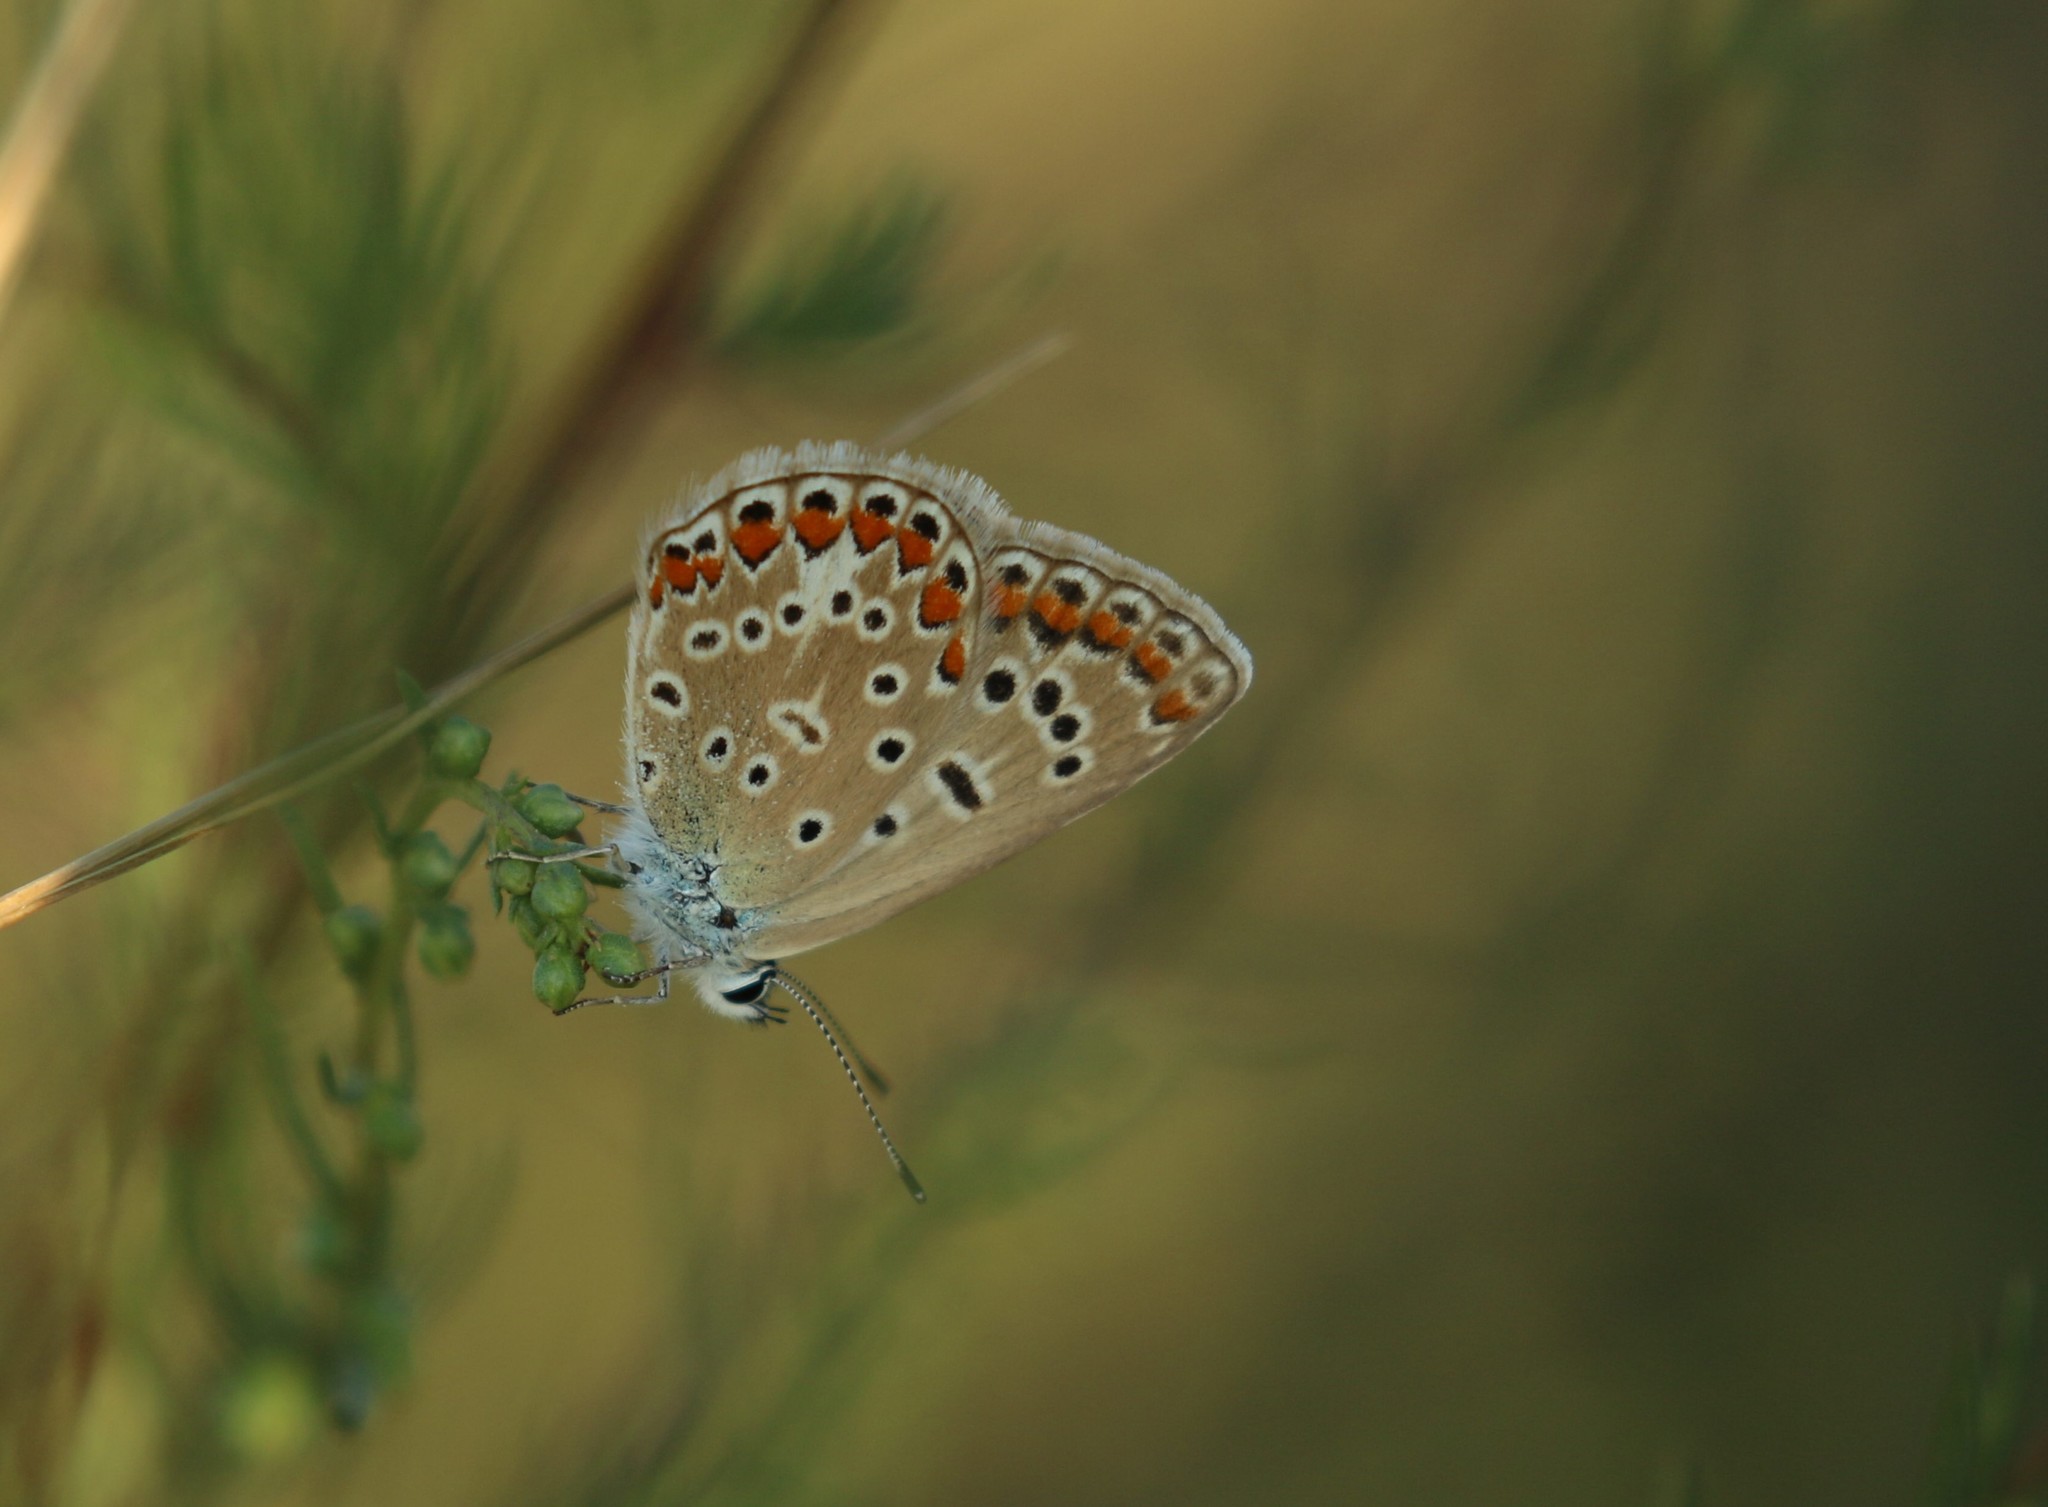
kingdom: Animalia
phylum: Arthropoda
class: Insecta
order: Lepidoptera
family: Lycaenidae
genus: Polyommatus
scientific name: Polyommatus icarus
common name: Common blue
